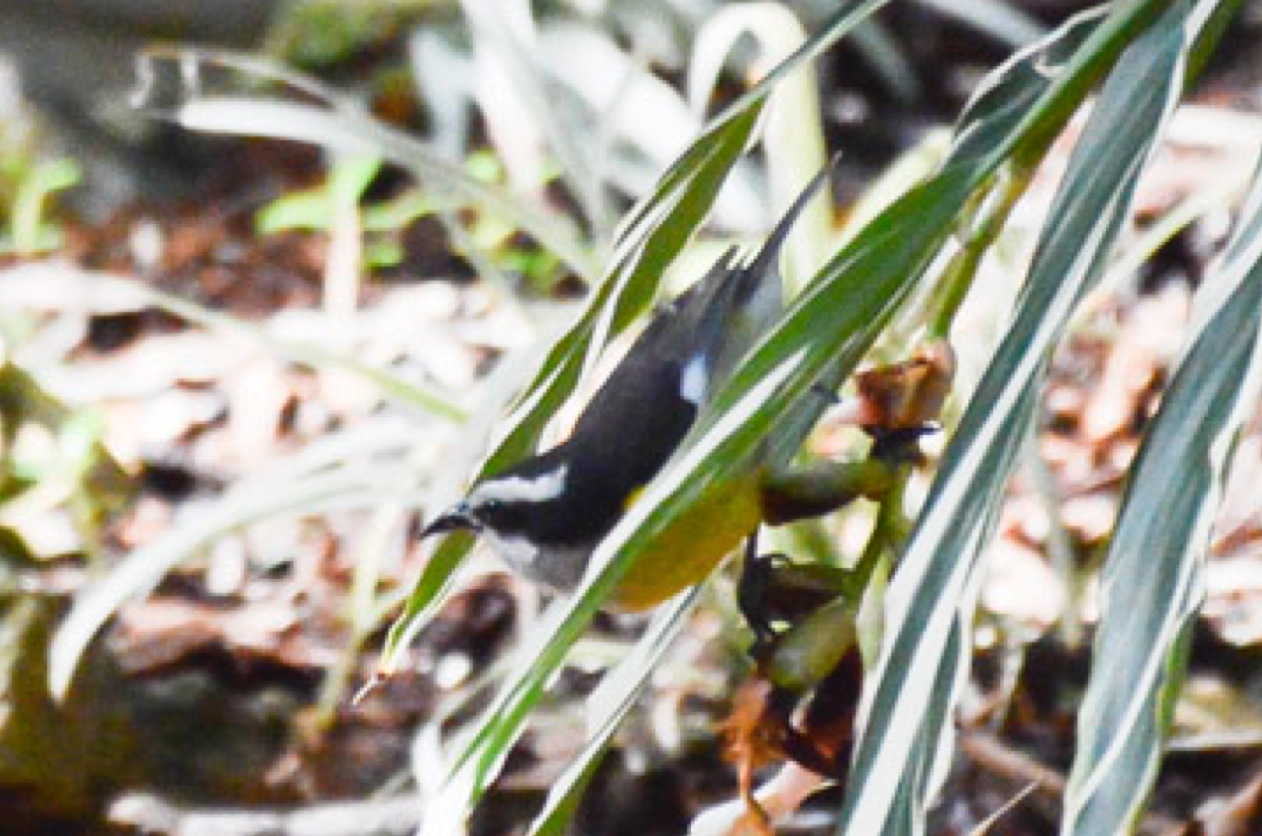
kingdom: Animalia
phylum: Chordata
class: Aves
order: Passeriformes
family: Thraupidae
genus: Coereba
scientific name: Coereba flaveola
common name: Bananaquit
